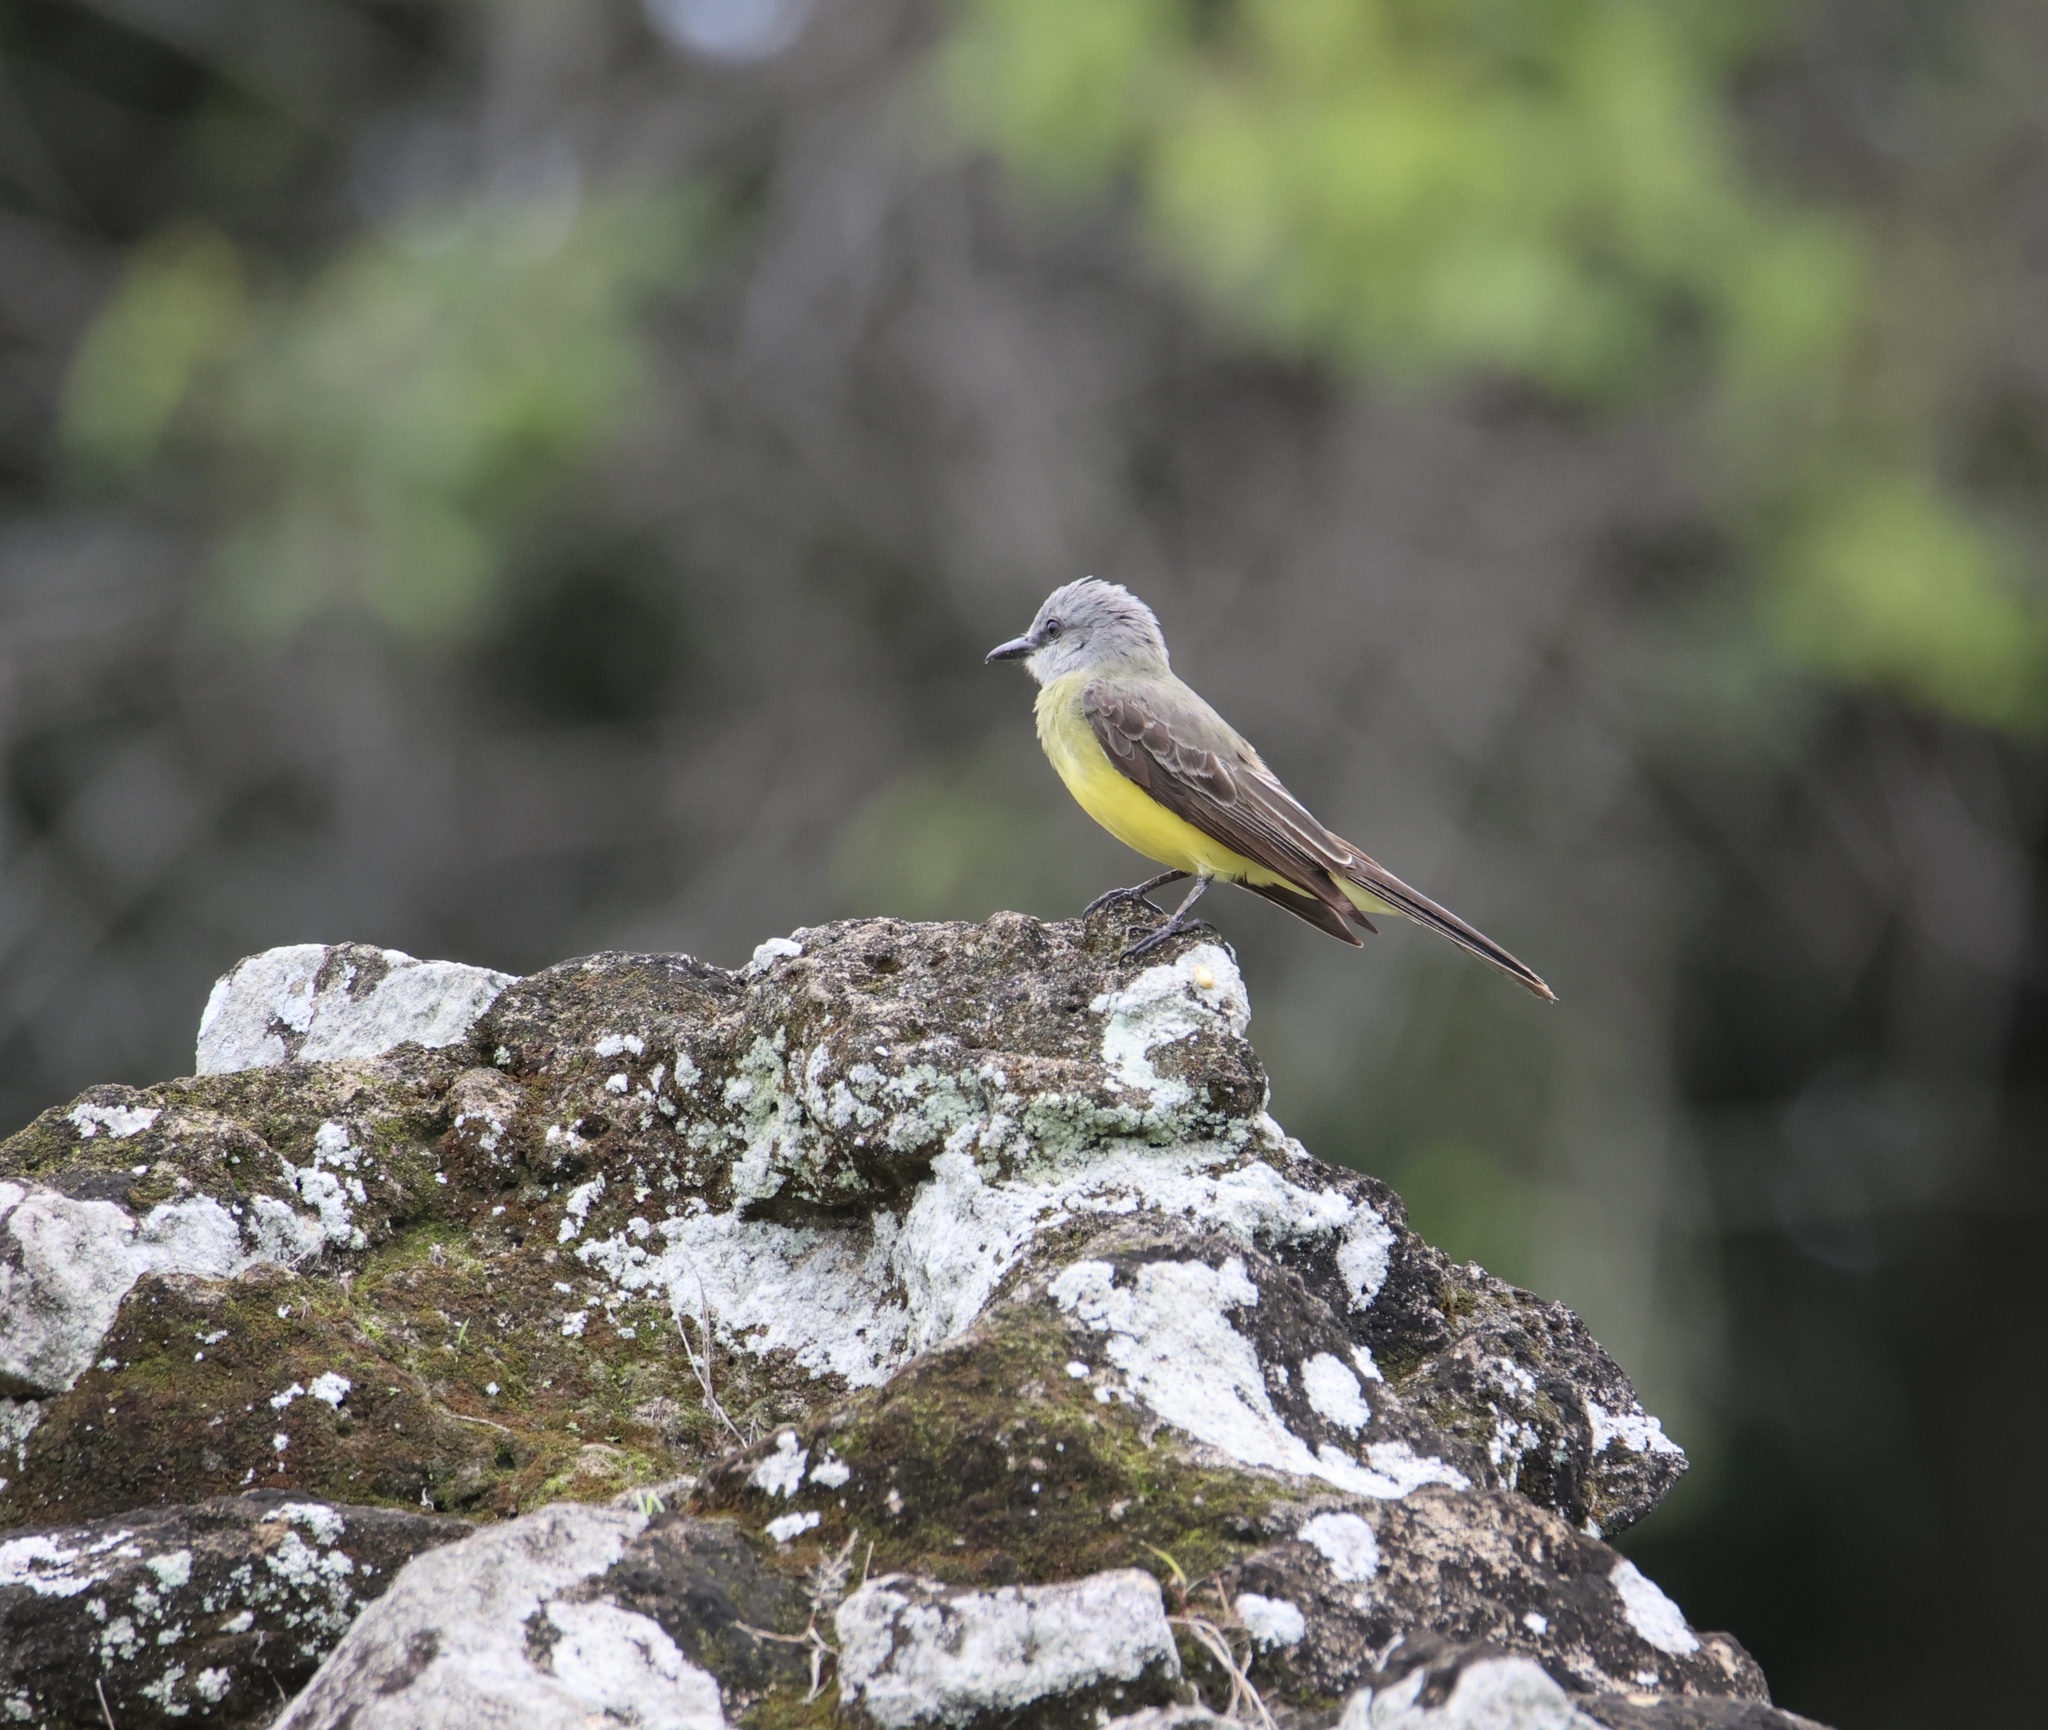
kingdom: Animalia
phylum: Chordata
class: Aves
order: Passeriformes
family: Tyrannidae
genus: Tyrannus
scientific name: Tyrannus melancholicus
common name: Tropical kingbird
